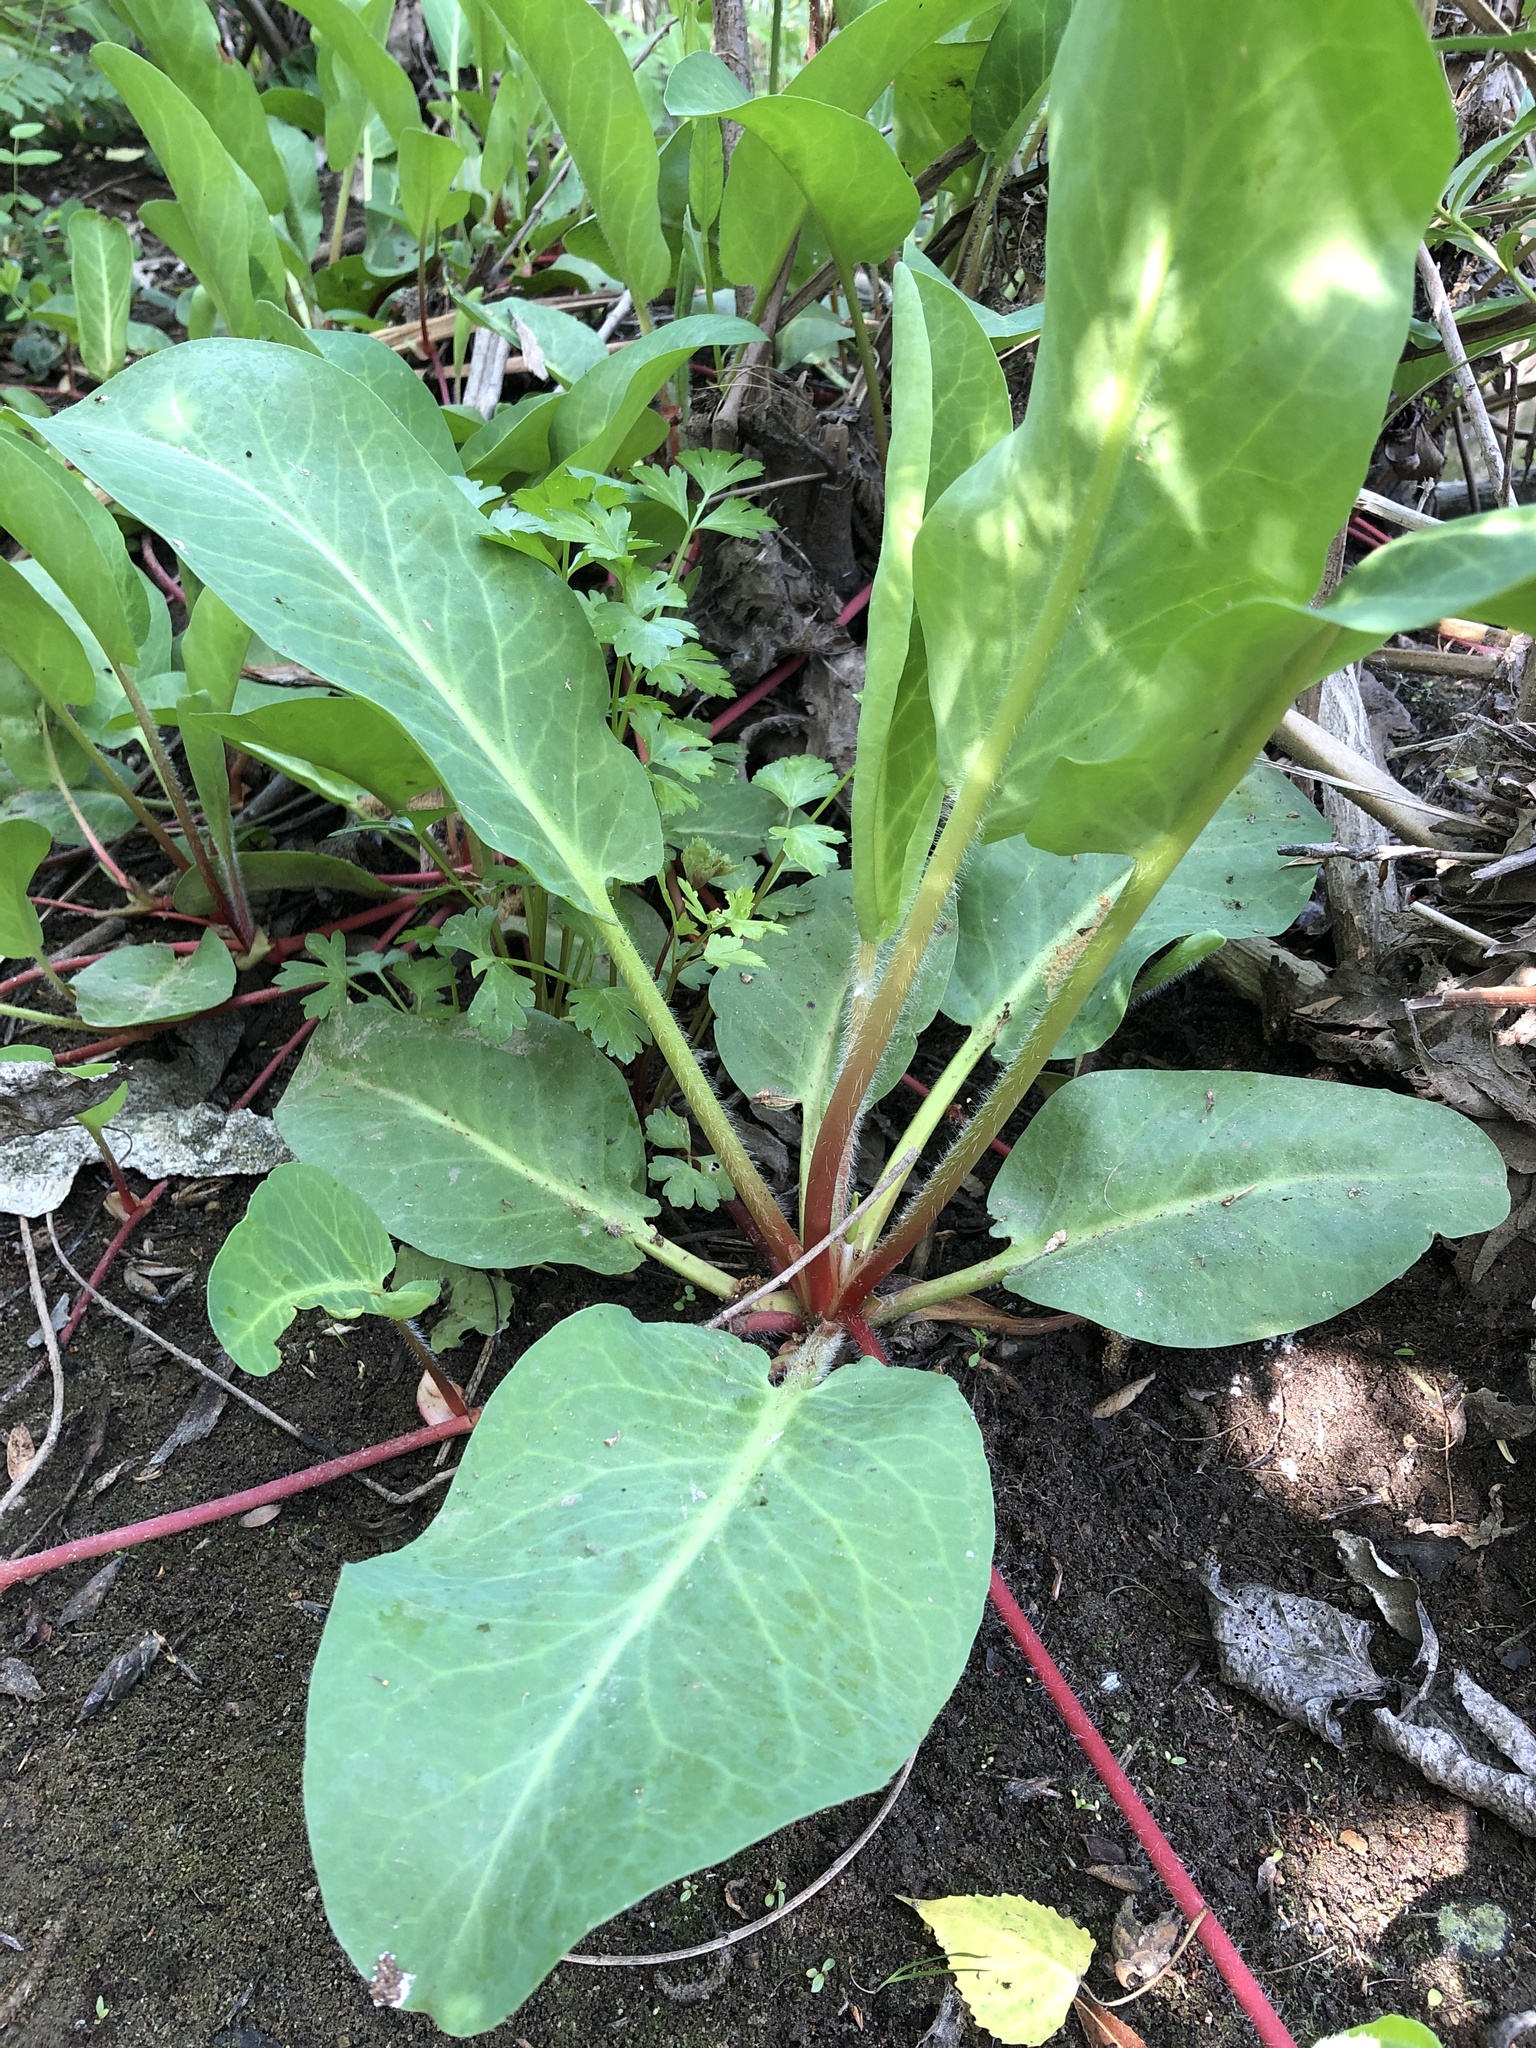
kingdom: Plantae
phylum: Tracheophyta
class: Magnoliopsida
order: Piperales
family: Saururaceae
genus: Anemopsis
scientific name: Anemopsis californica
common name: Apache-beads
